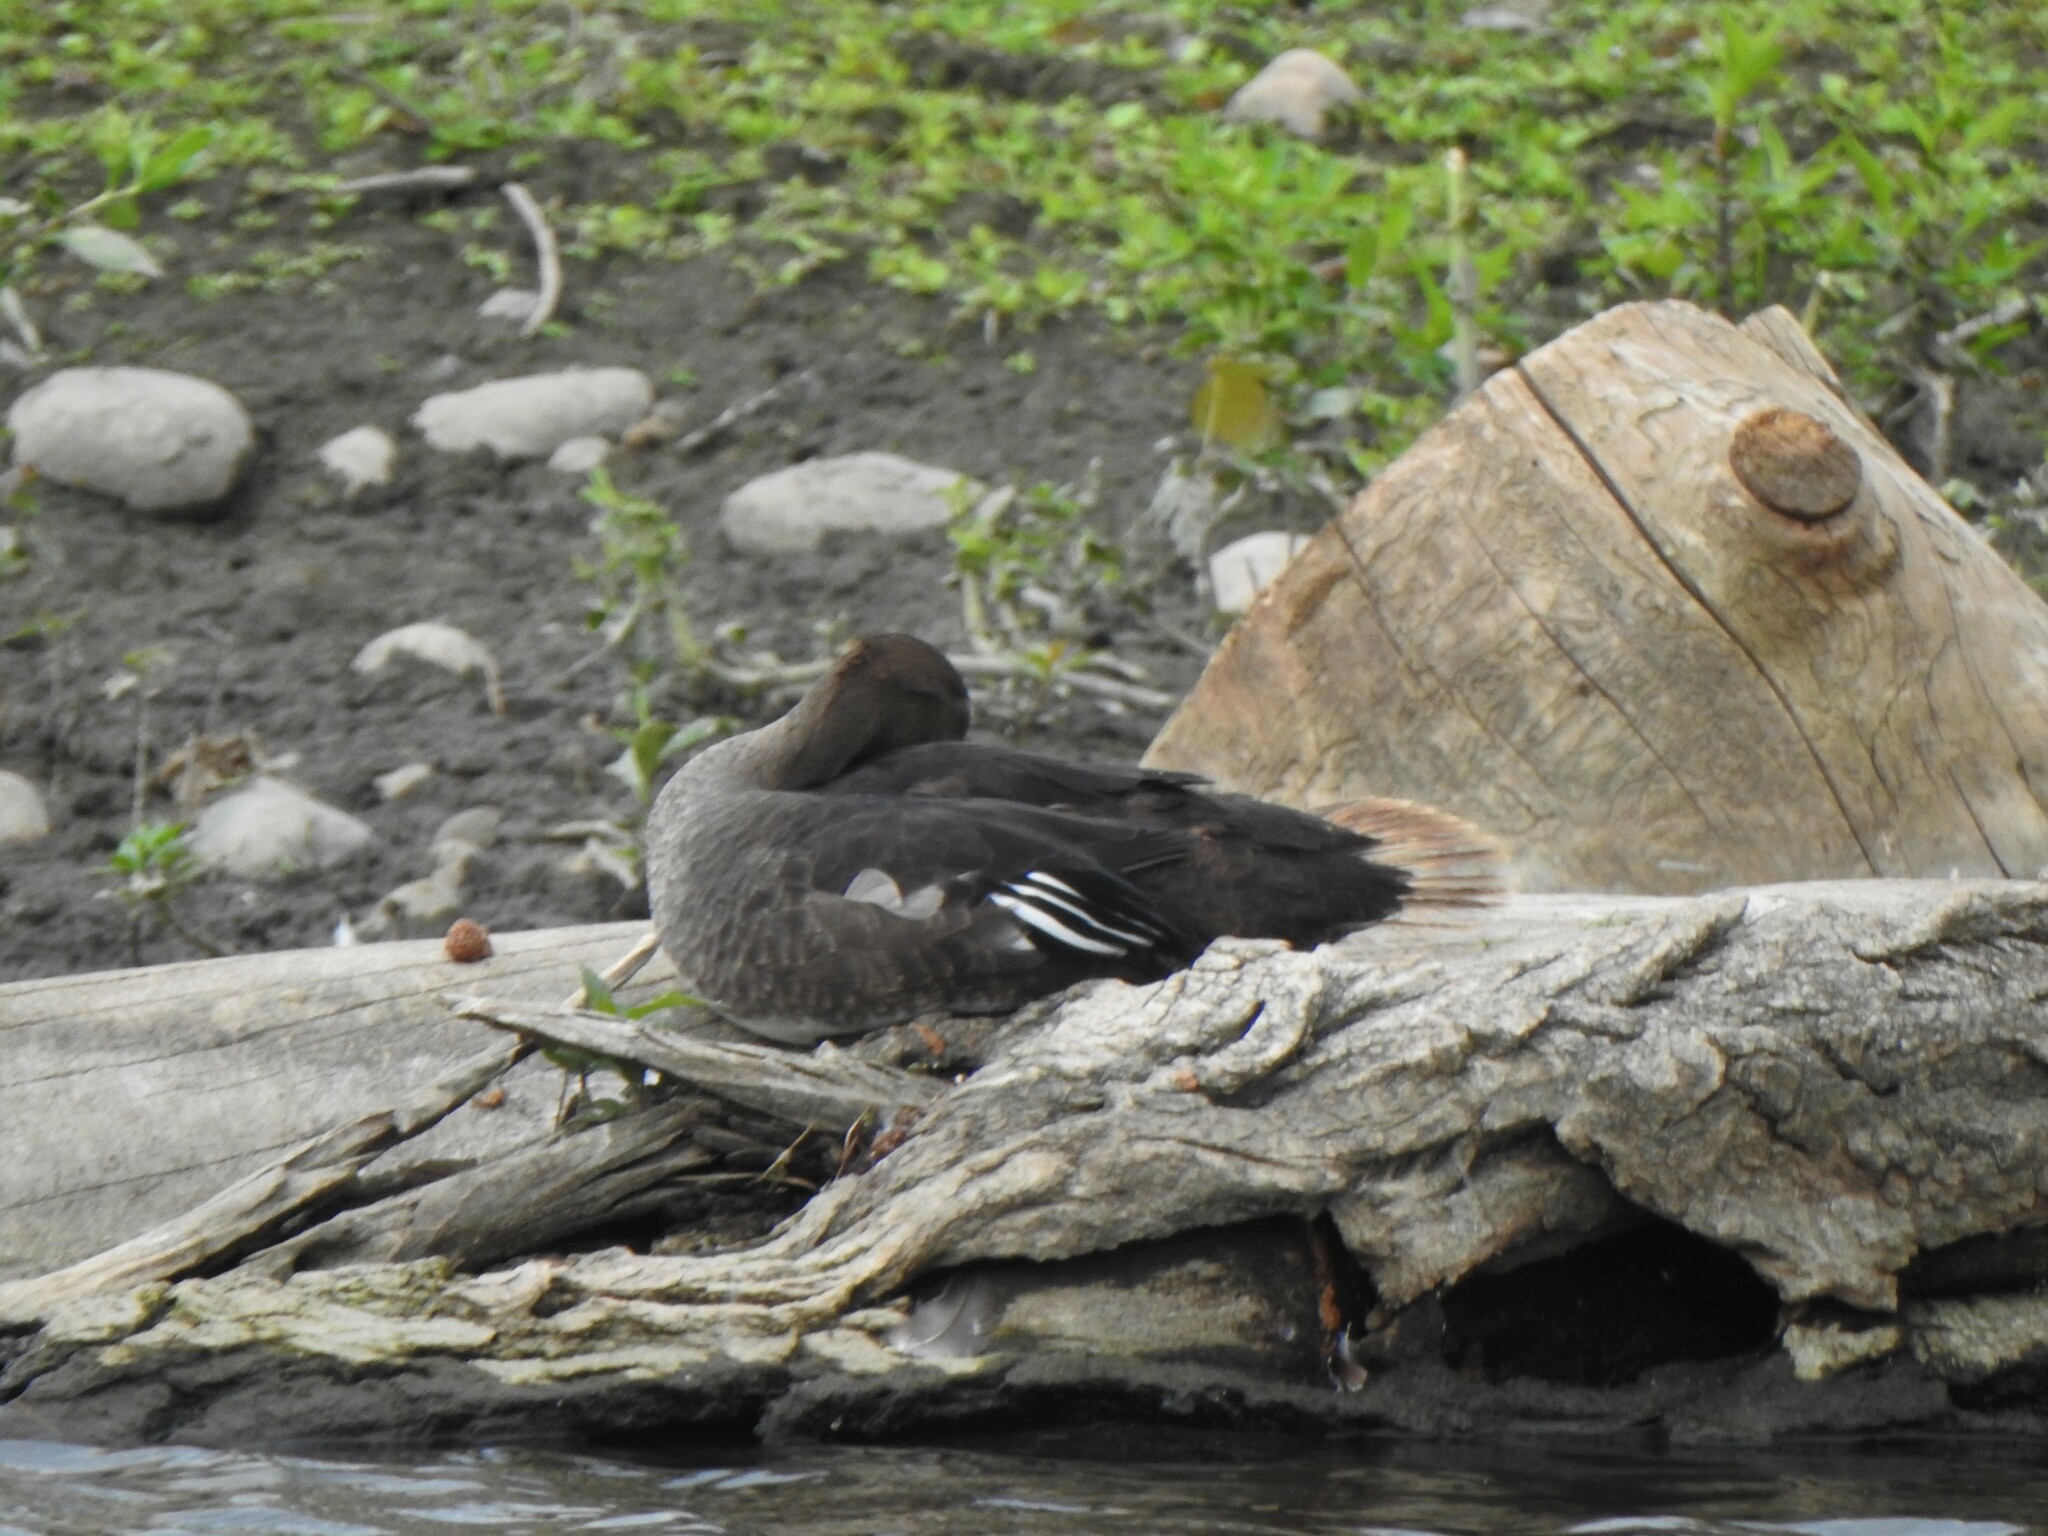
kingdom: Animalia
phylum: Chordata
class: Aves
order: Anseriformes
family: Anatidae
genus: Lophodytes
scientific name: Lophodytes cucullatus
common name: Hooded merganser
